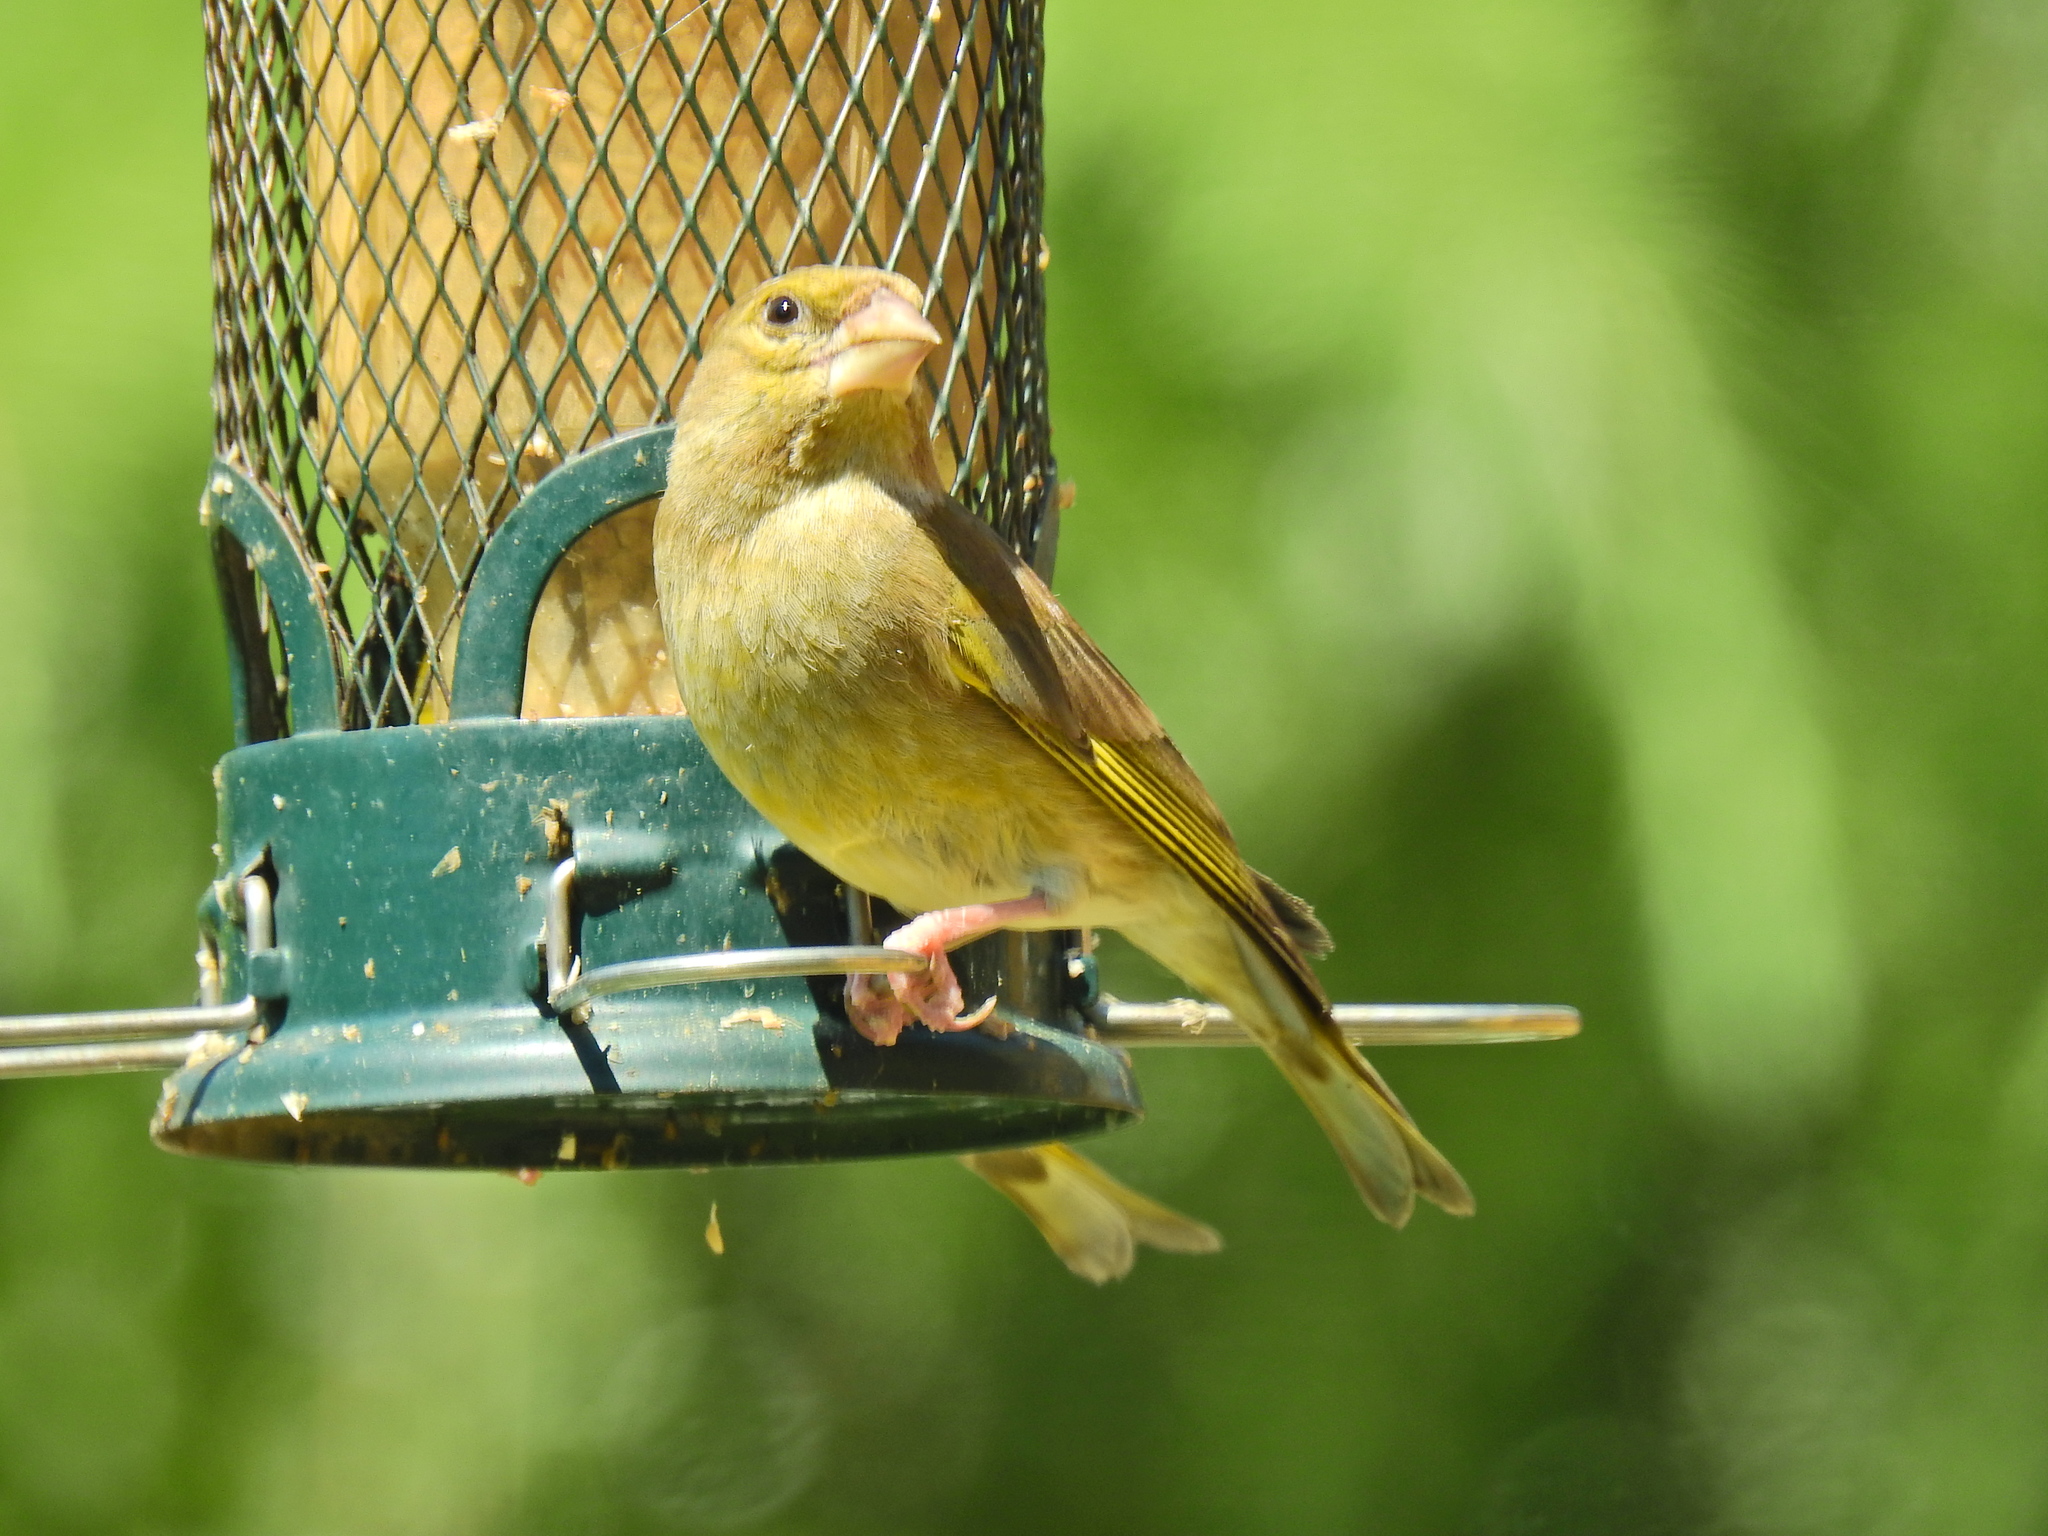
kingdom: Plantae
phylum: Tracheophyta
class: Liliopsida
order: Poales
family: Poaceae
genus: Chloris
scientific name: Chloris chloris
